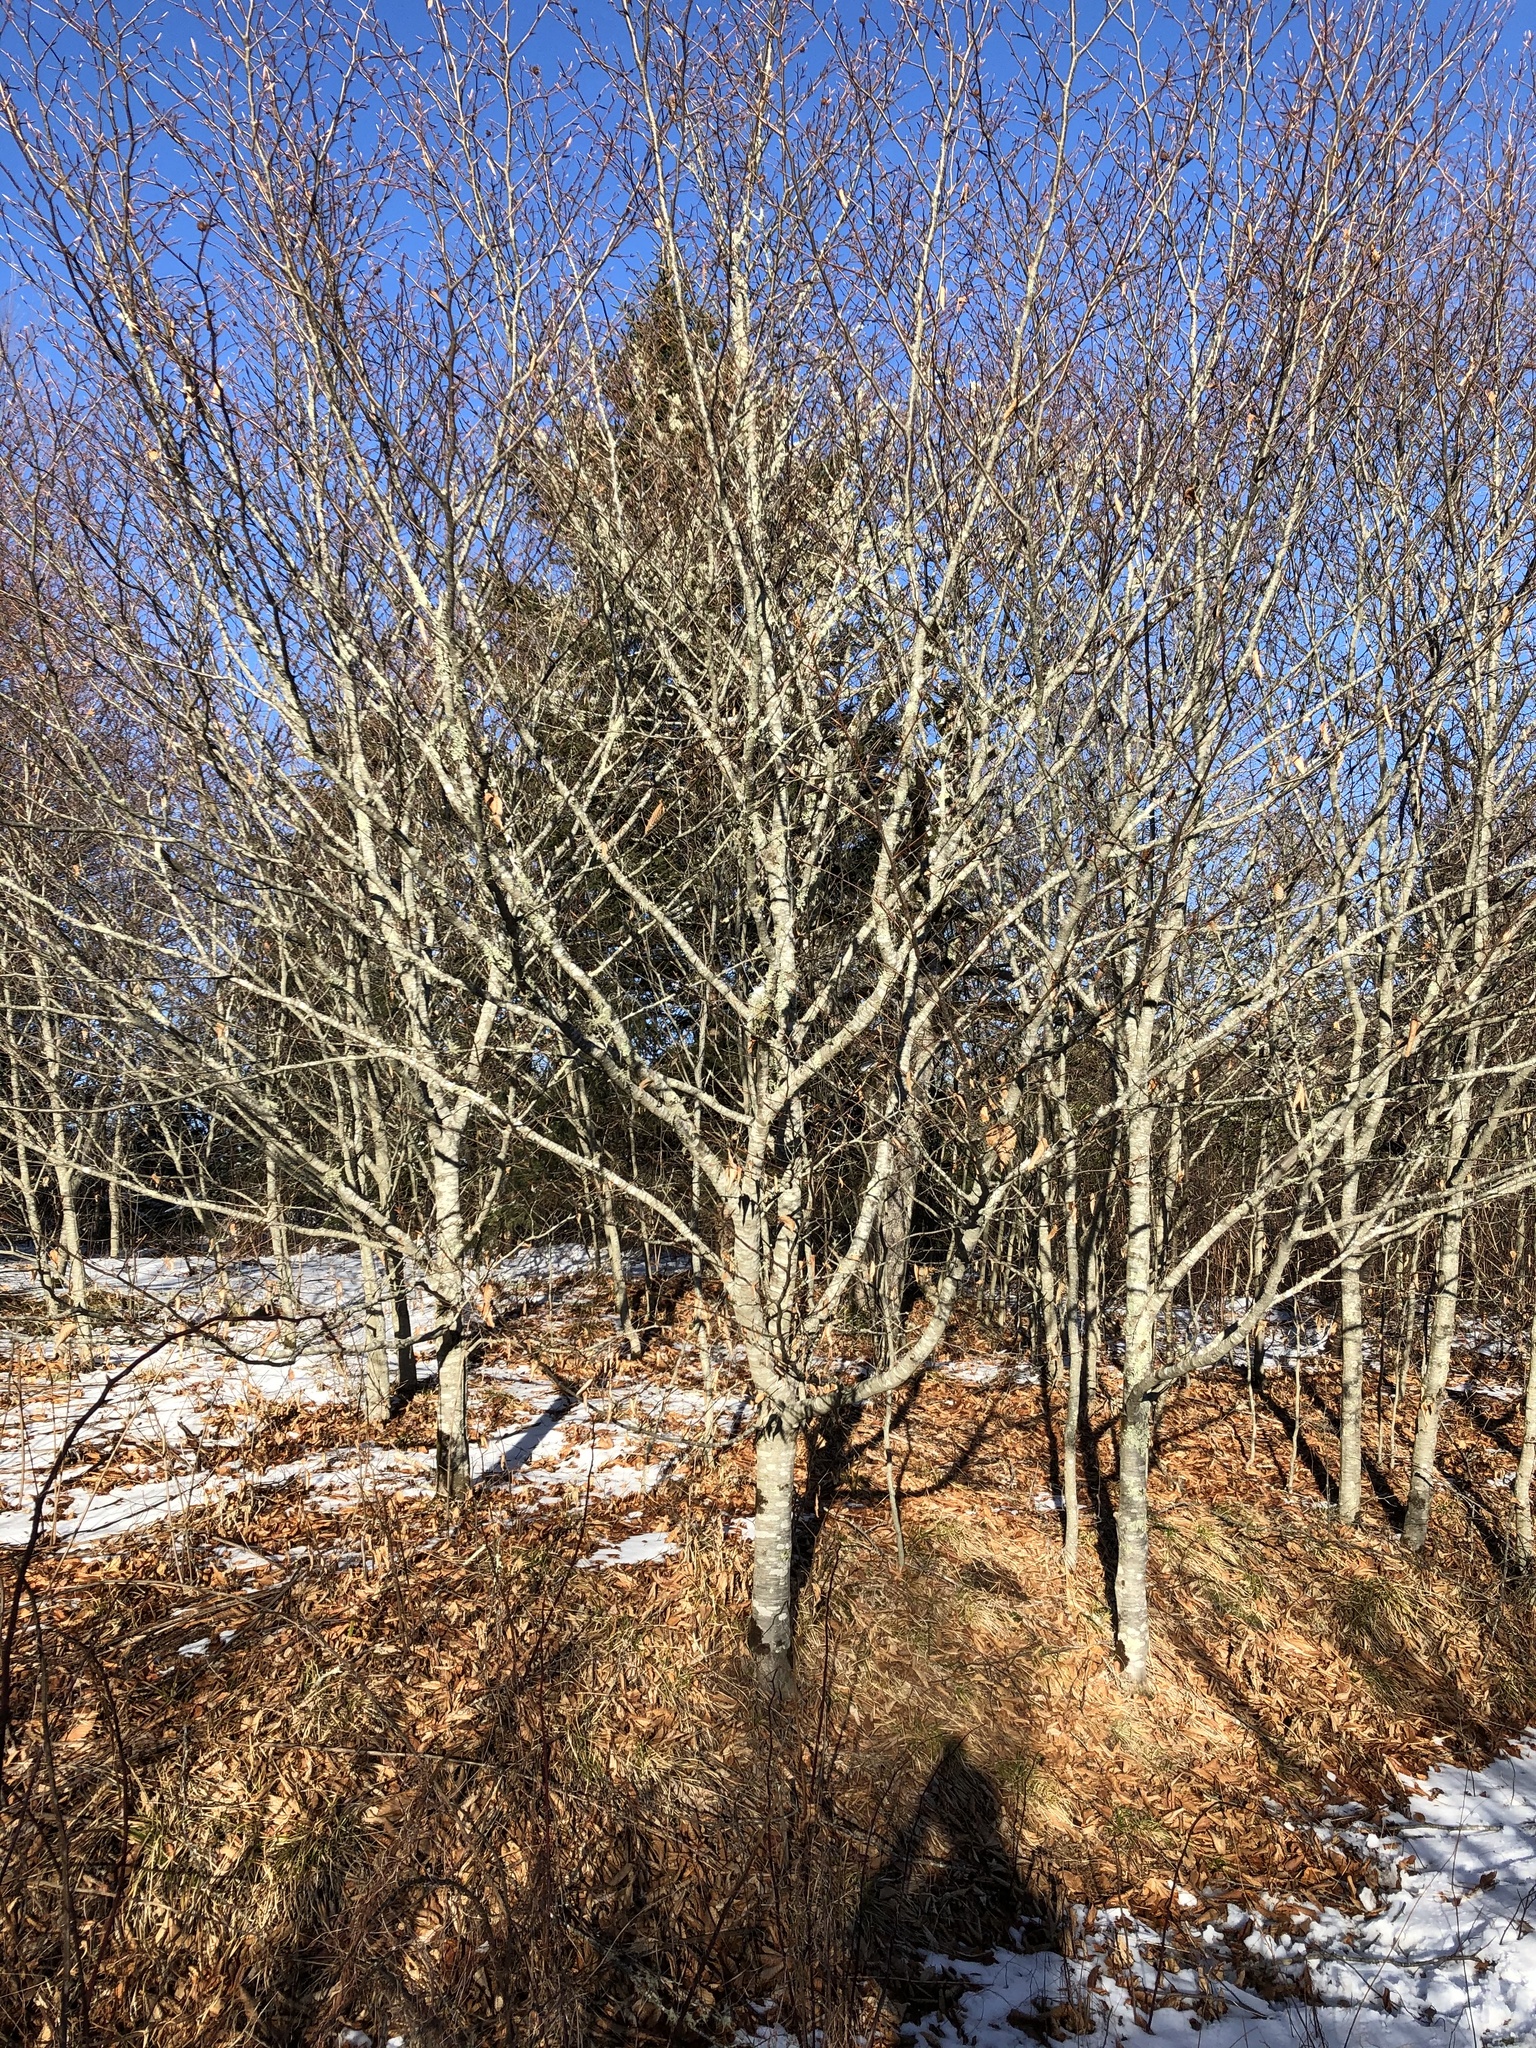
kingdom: Plantae
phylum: Tracheophyta
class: Magnoliopsida
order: Fagales
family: Fagaceae
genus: Fagus
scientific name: Fagus grandifolia
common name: American beech
